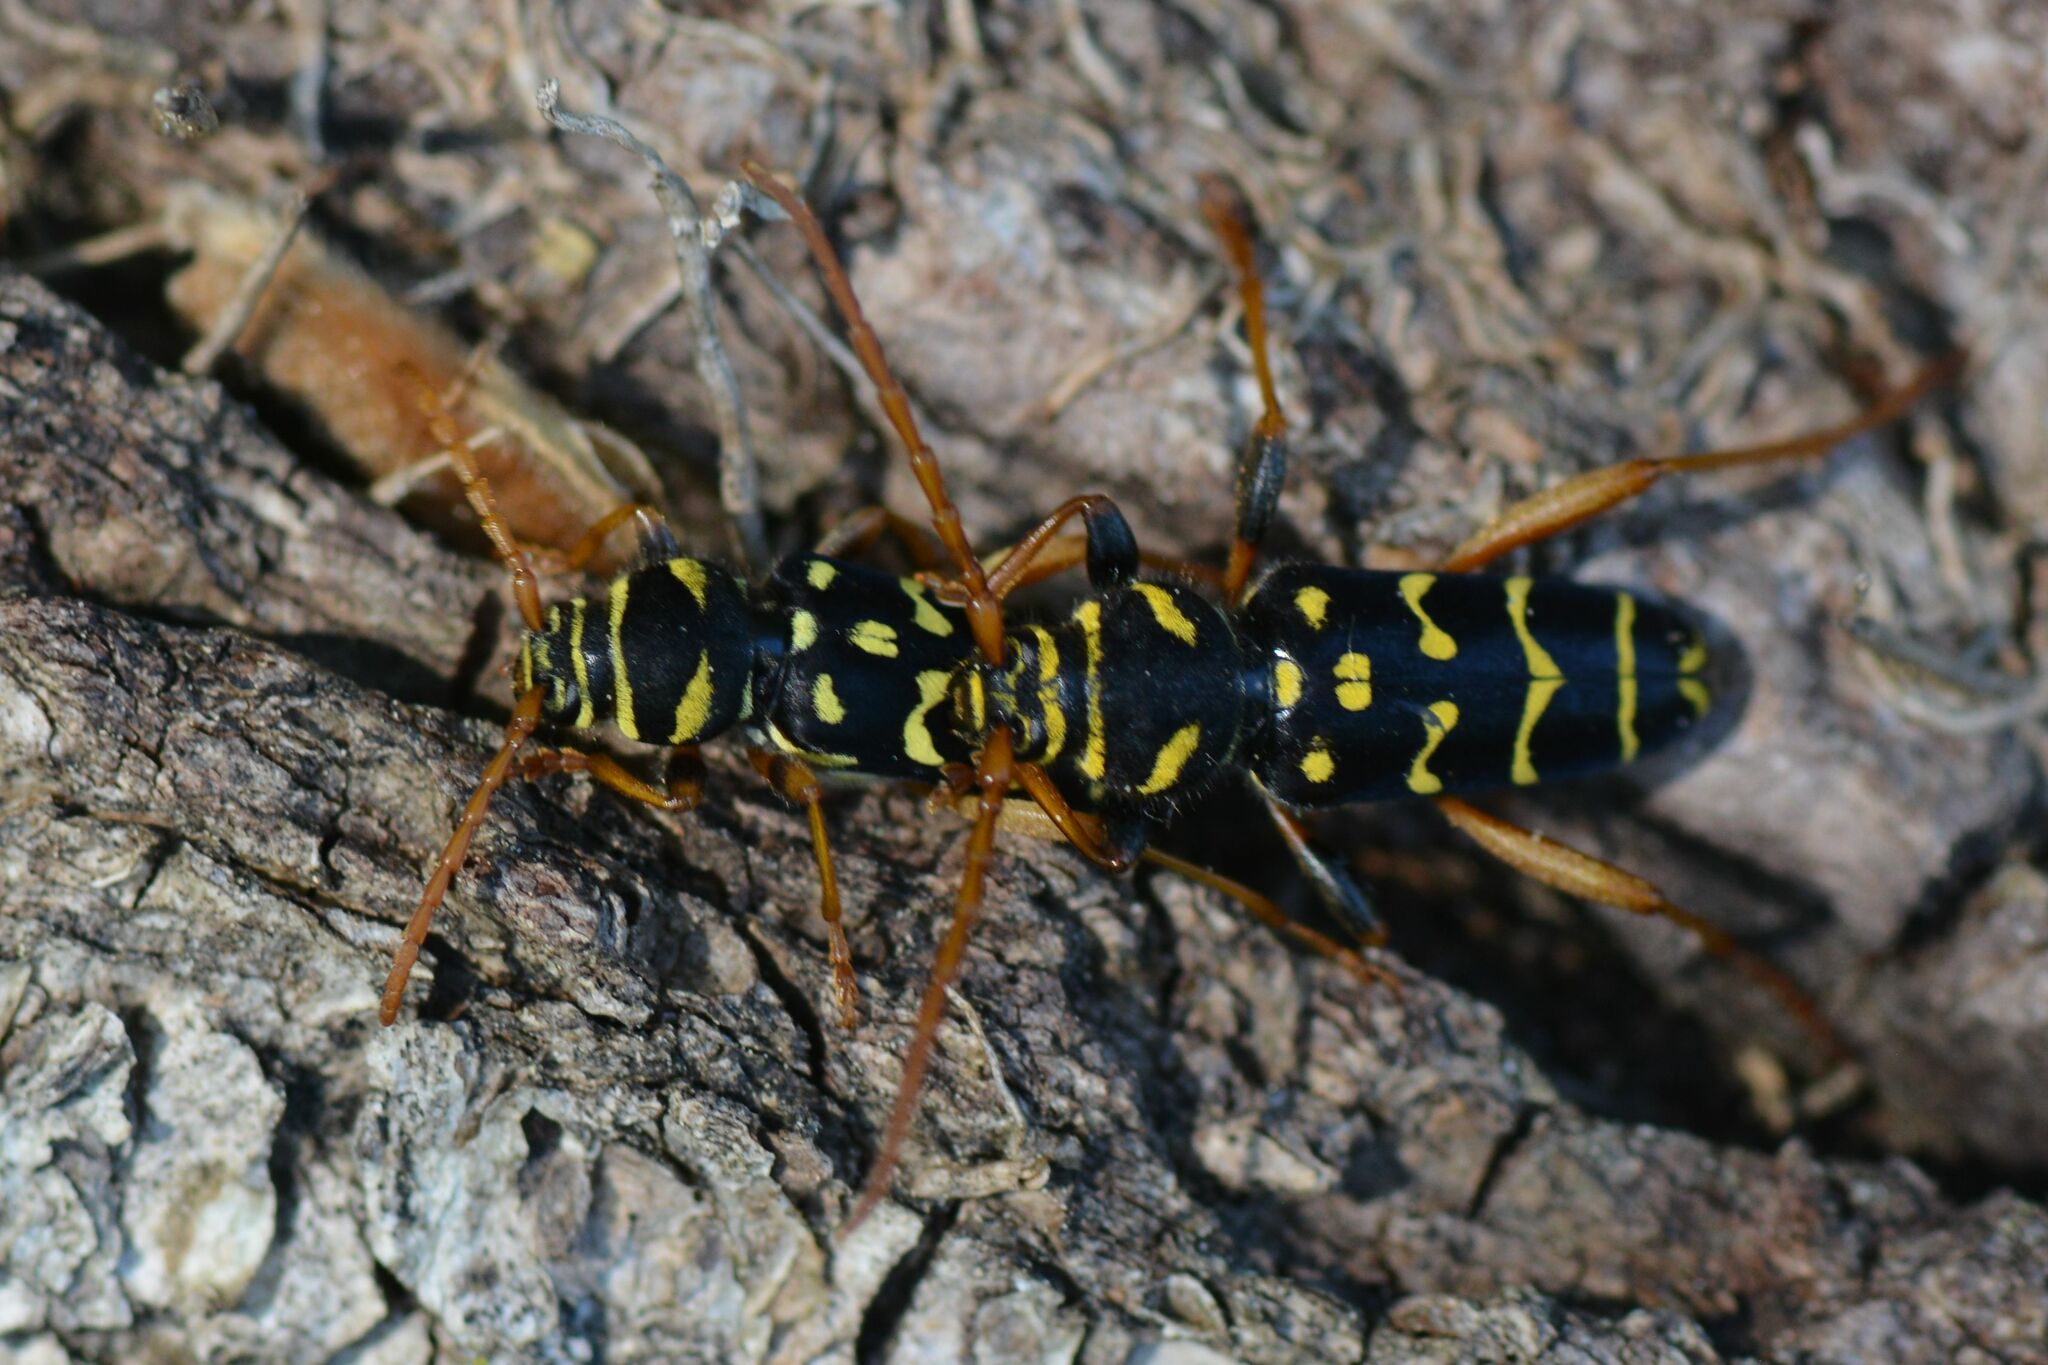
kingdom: Animalia
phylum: Arthropoda
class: Insecta
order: Coleoptera
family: Cerambycidae
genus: Plagionotus
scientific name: Plagionotus arcuatus
